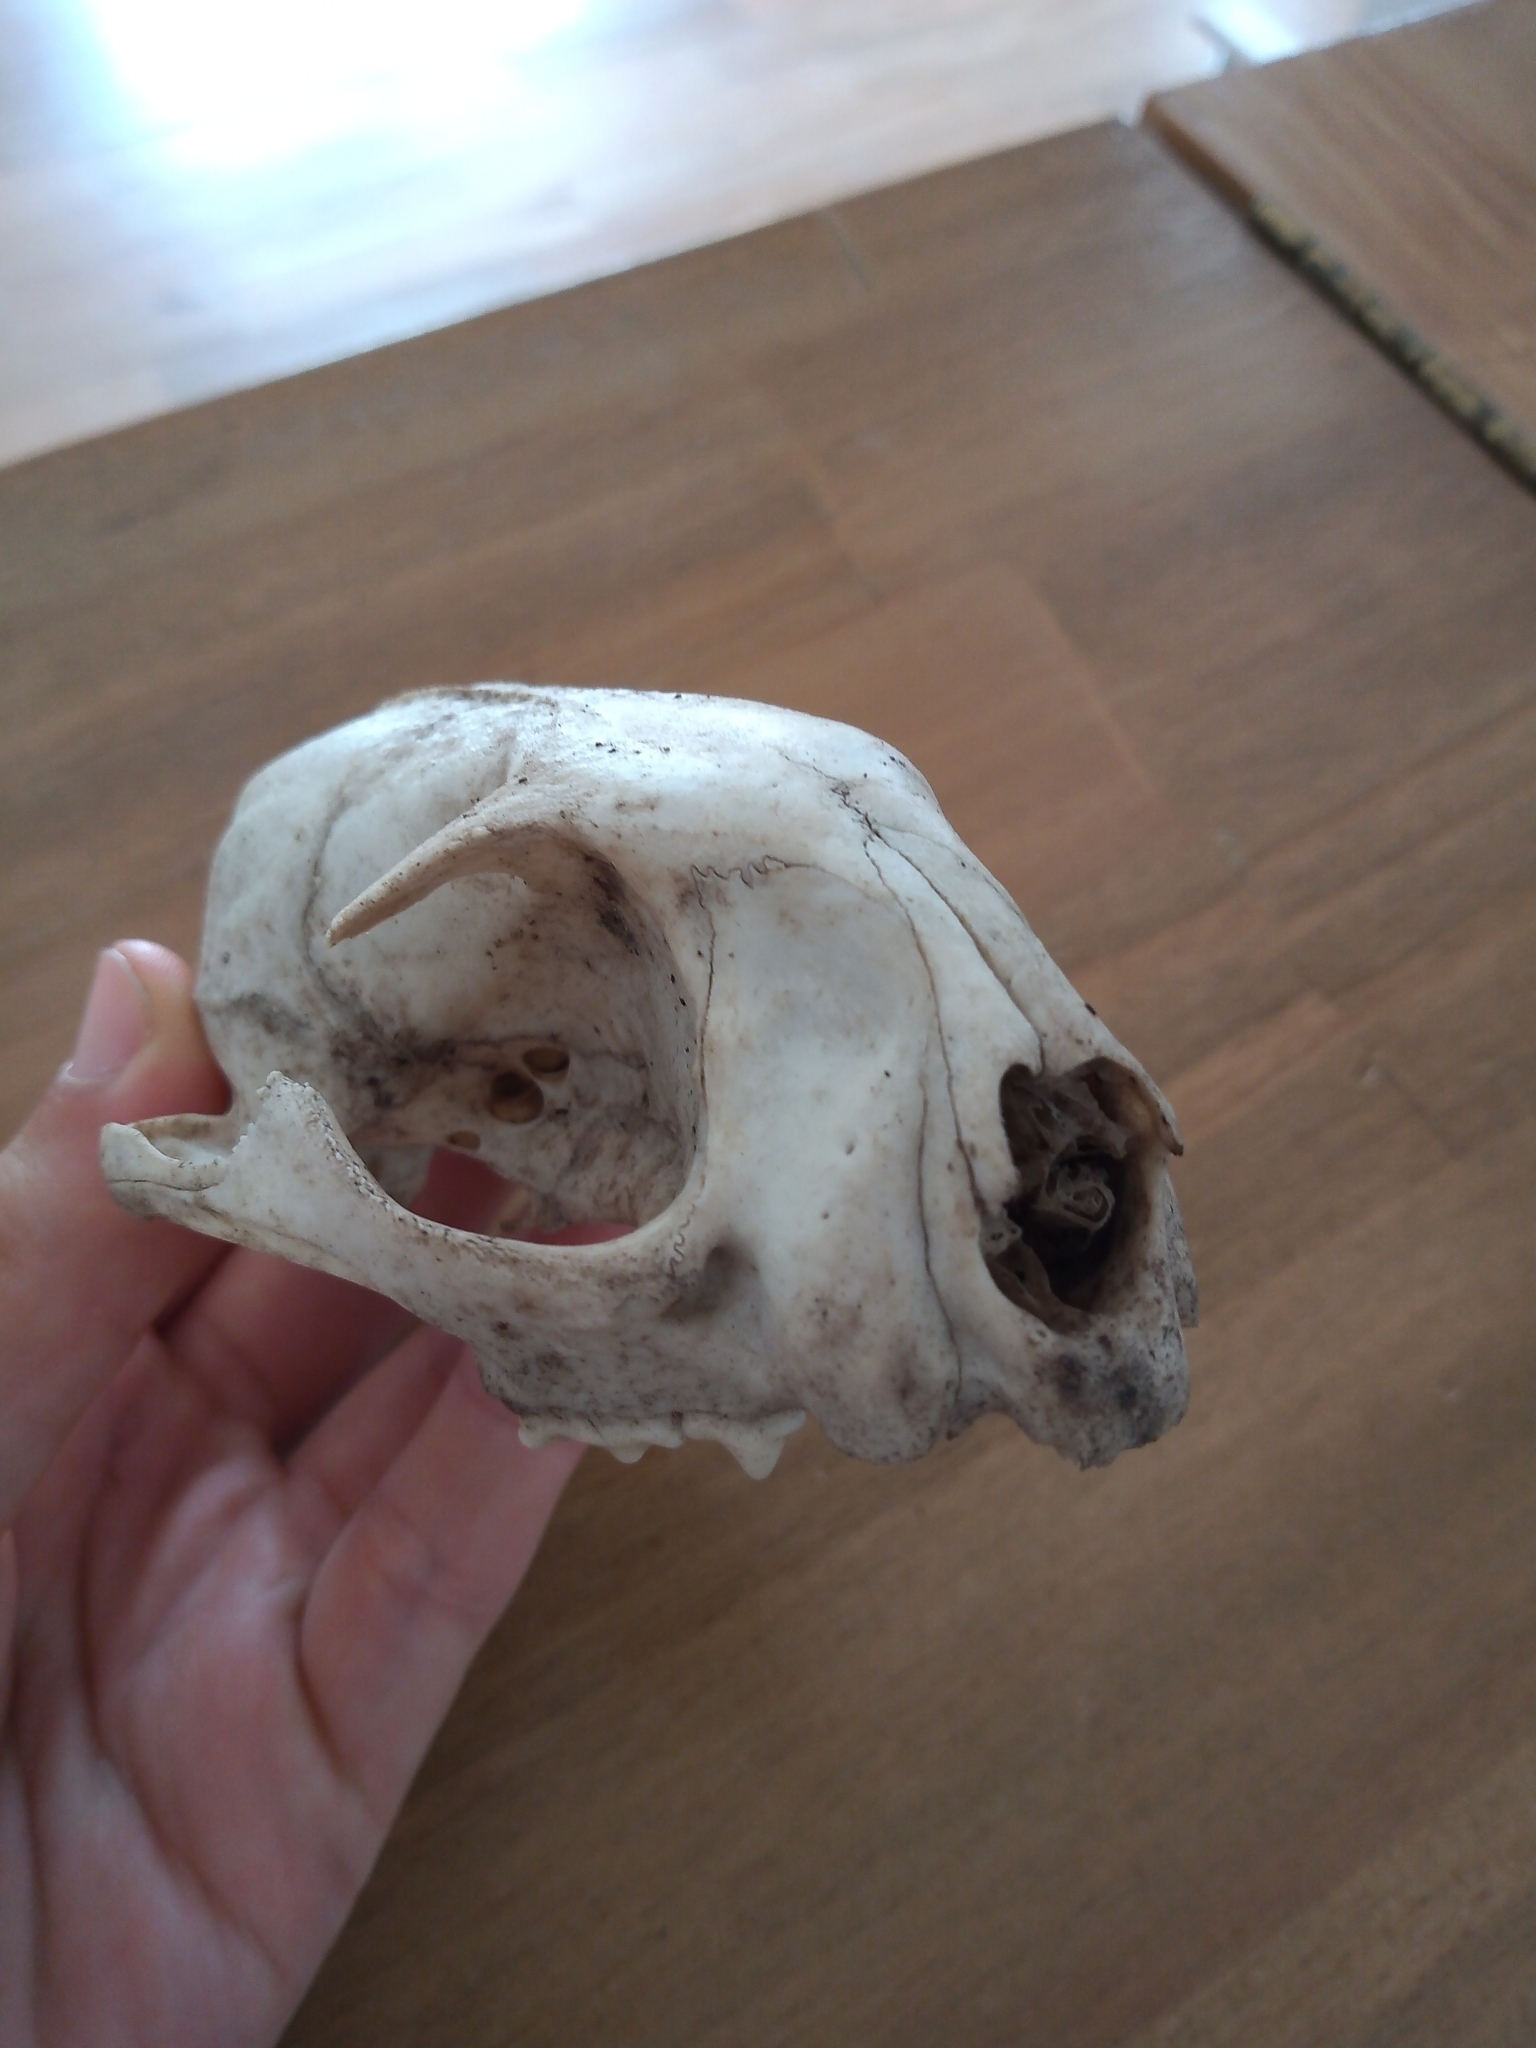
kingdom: Animalia
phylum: Chordata
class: Mammalia
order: Carnivora
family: Felidae
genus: Leopardus
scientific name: Leopardus geoffroyi
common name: Geoffroy's cat
